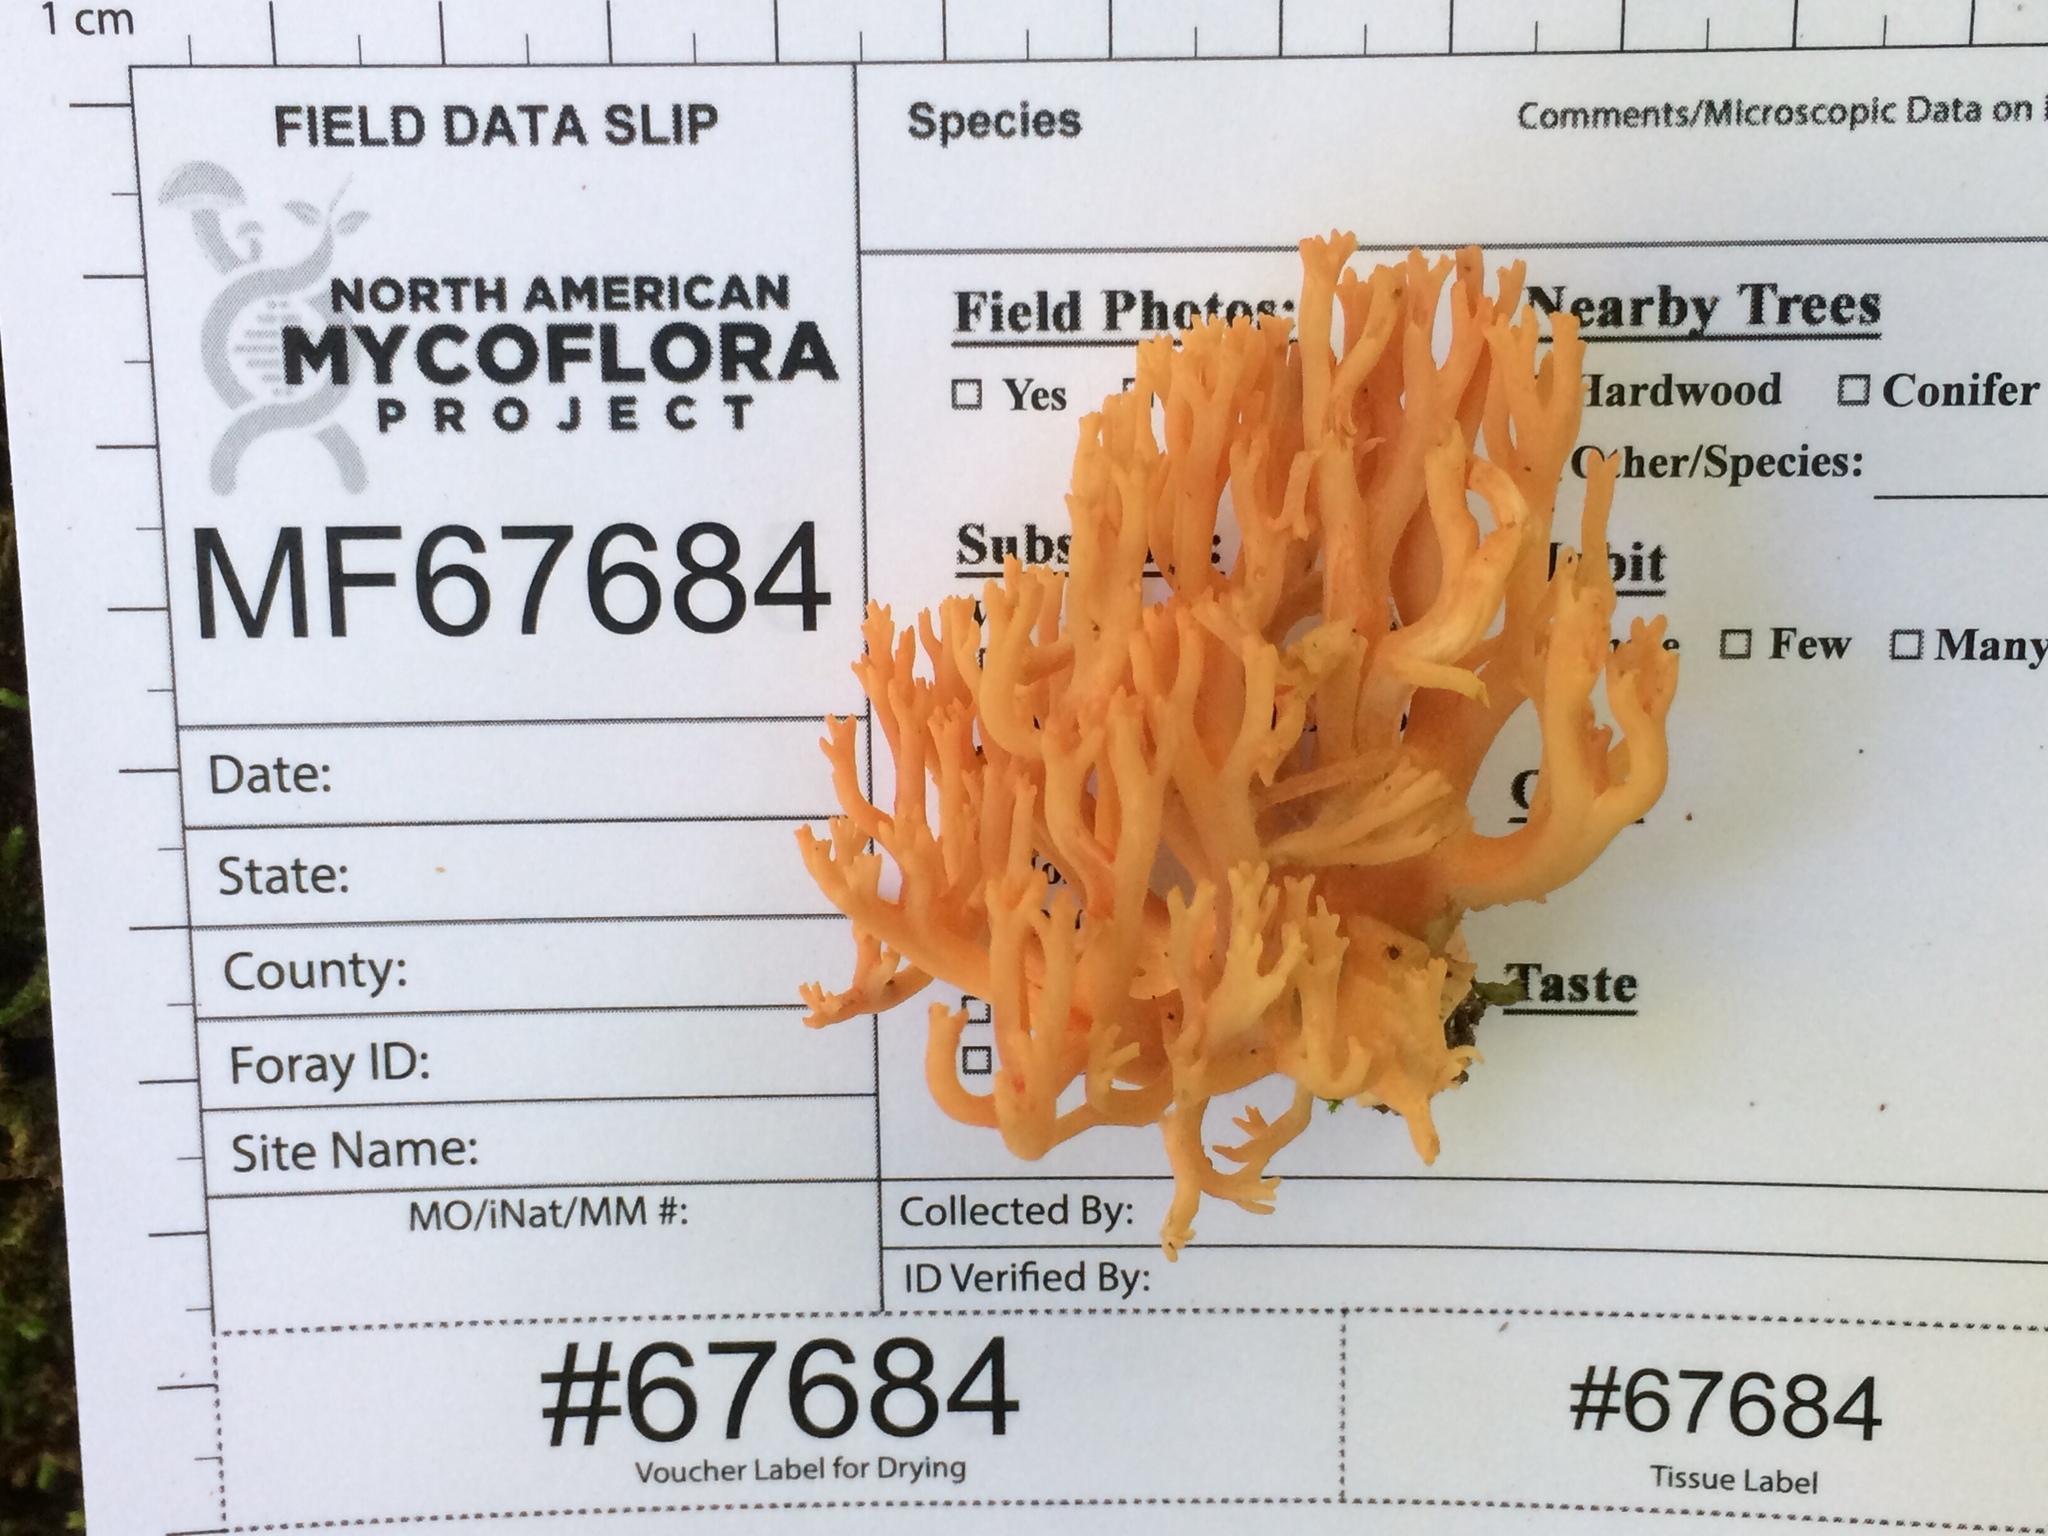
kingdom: Fungi
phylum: Basidiomycota
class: Agaricomycetes
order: Gomphales
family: Gomphaceae
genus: Ramaria
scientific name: Ramaria subbotrytis
